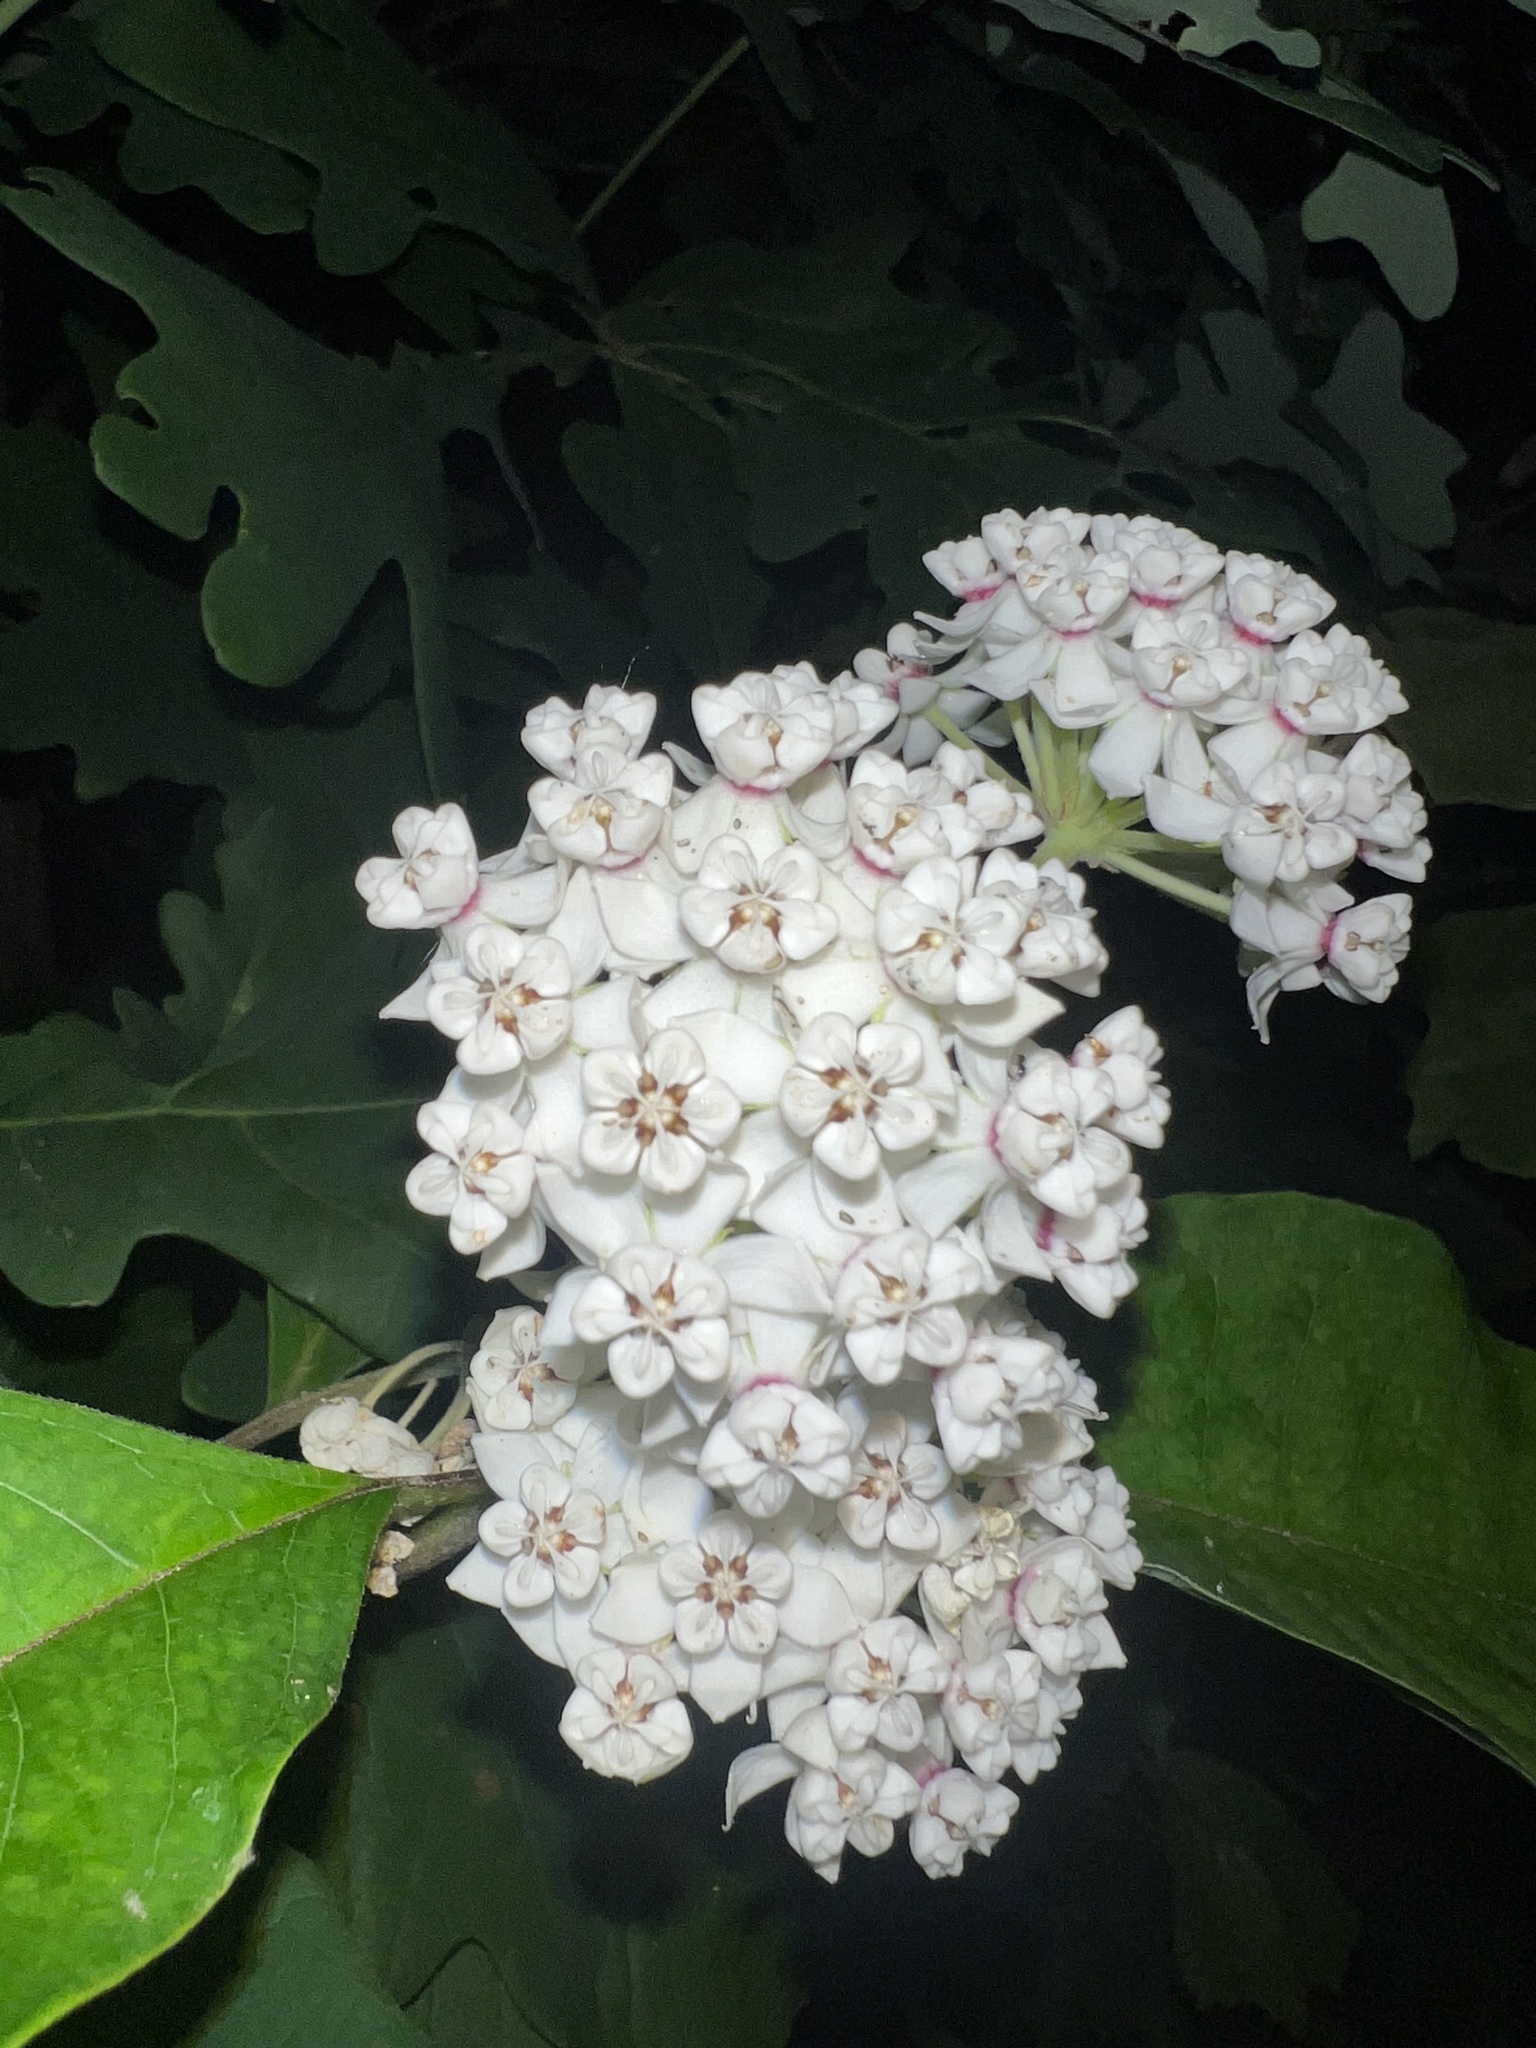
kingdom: Plantae
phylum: Tracheophyta
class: Magnoliopsida
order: Gentianales
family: Apocynaceae
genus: Asclepias
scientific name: Asclepias variegata
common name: Variegated milkweed
